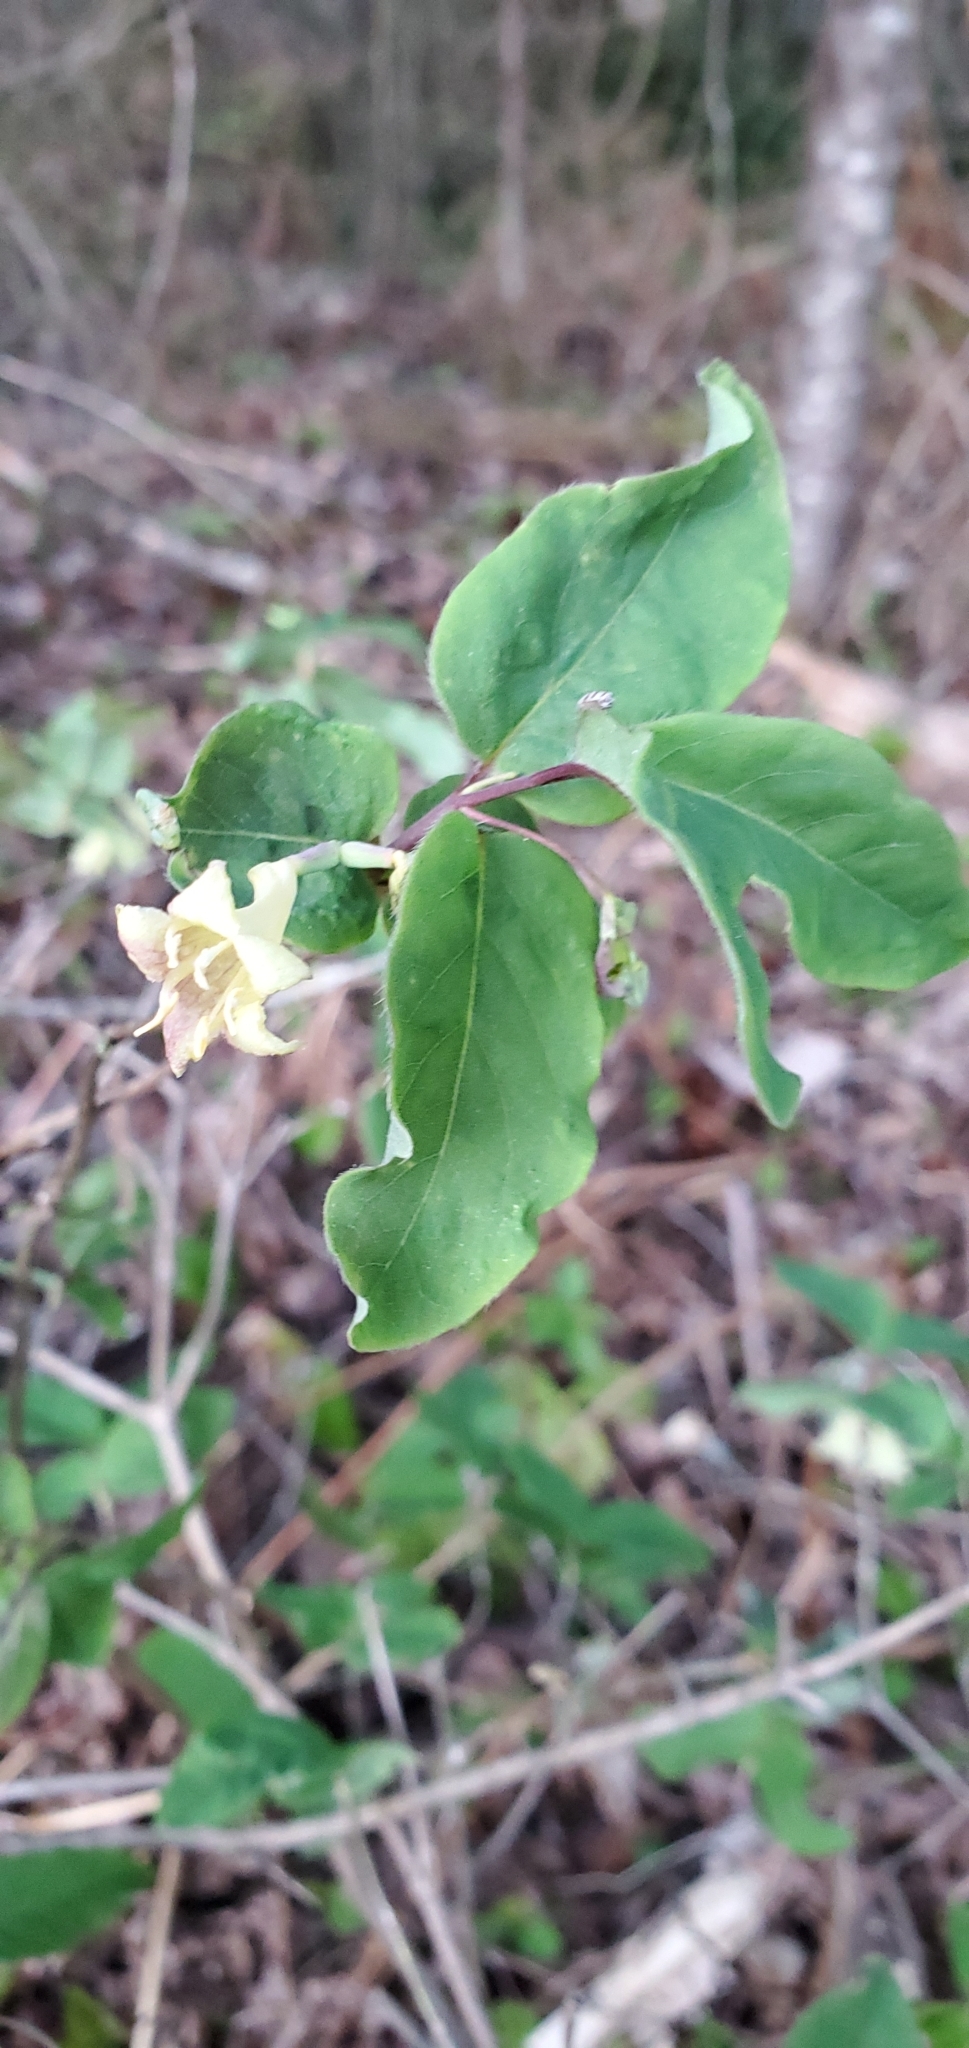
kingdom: Plantae
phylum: Tracheophyta
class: Magnoliopsida
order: Dipsacales
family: Caprifoliaceae
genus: Lonicera
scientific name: Lonicera canadensis
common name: American fly-honeysuckle
